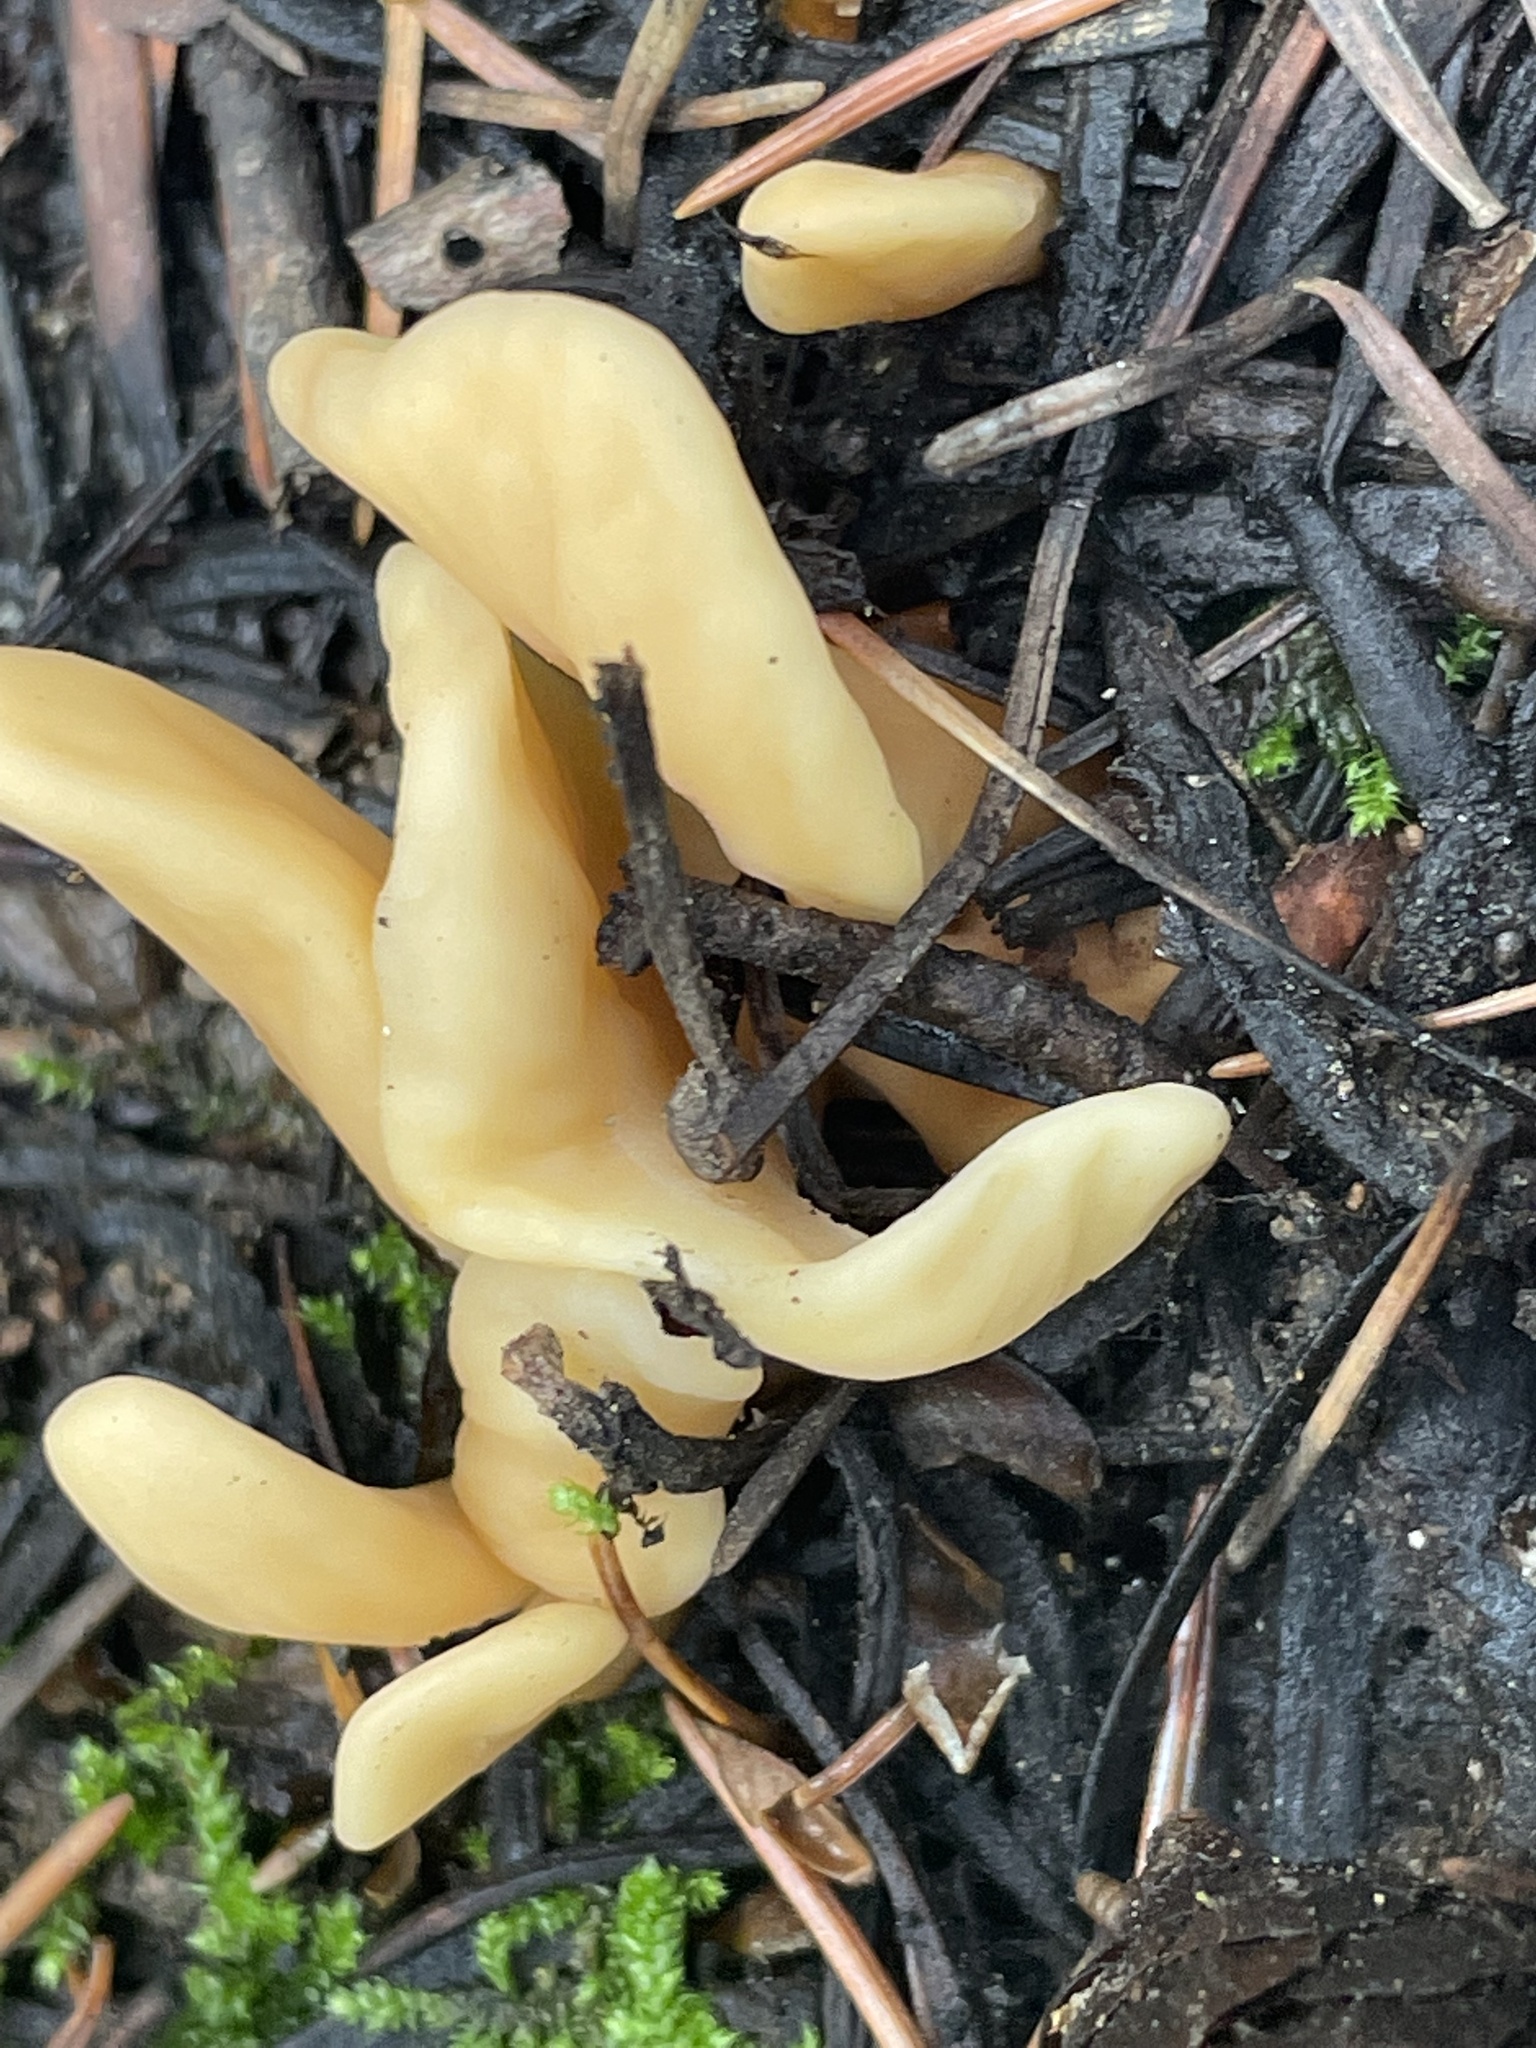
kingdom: Fungi
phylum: Ascomycota
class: Leotiomycetes
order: Rhytismatales
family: Cudoniaceae
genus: Spathularia
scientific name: Spathularia rufa
